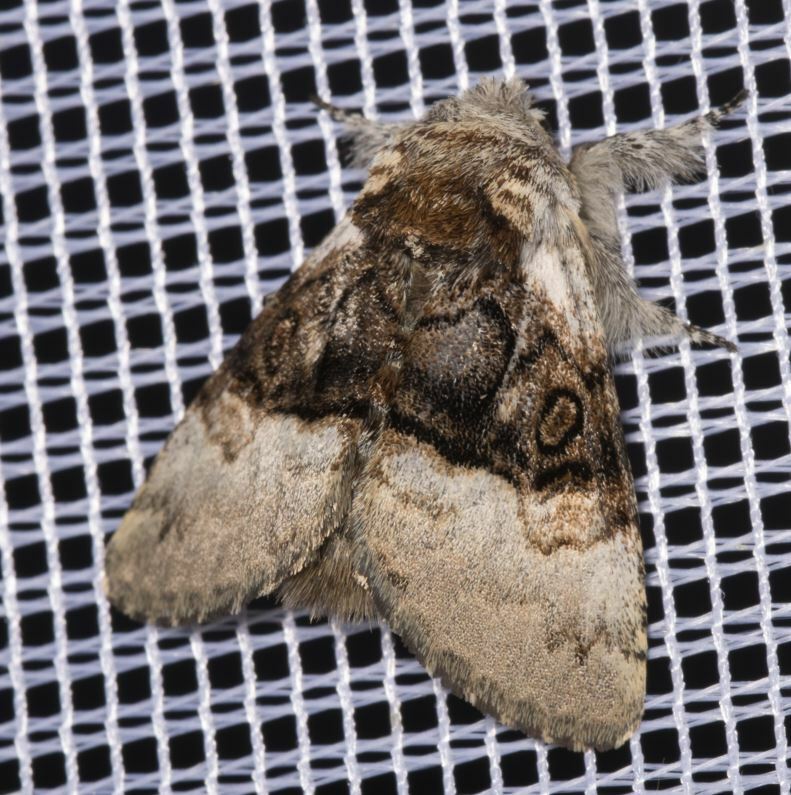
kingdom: Animalia
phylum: Arthropoda
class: Insecta
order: Lepidoptera
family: Noctuidae
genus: Colocasia
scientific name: Colocasia coryli
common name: Nut-tree tussock
